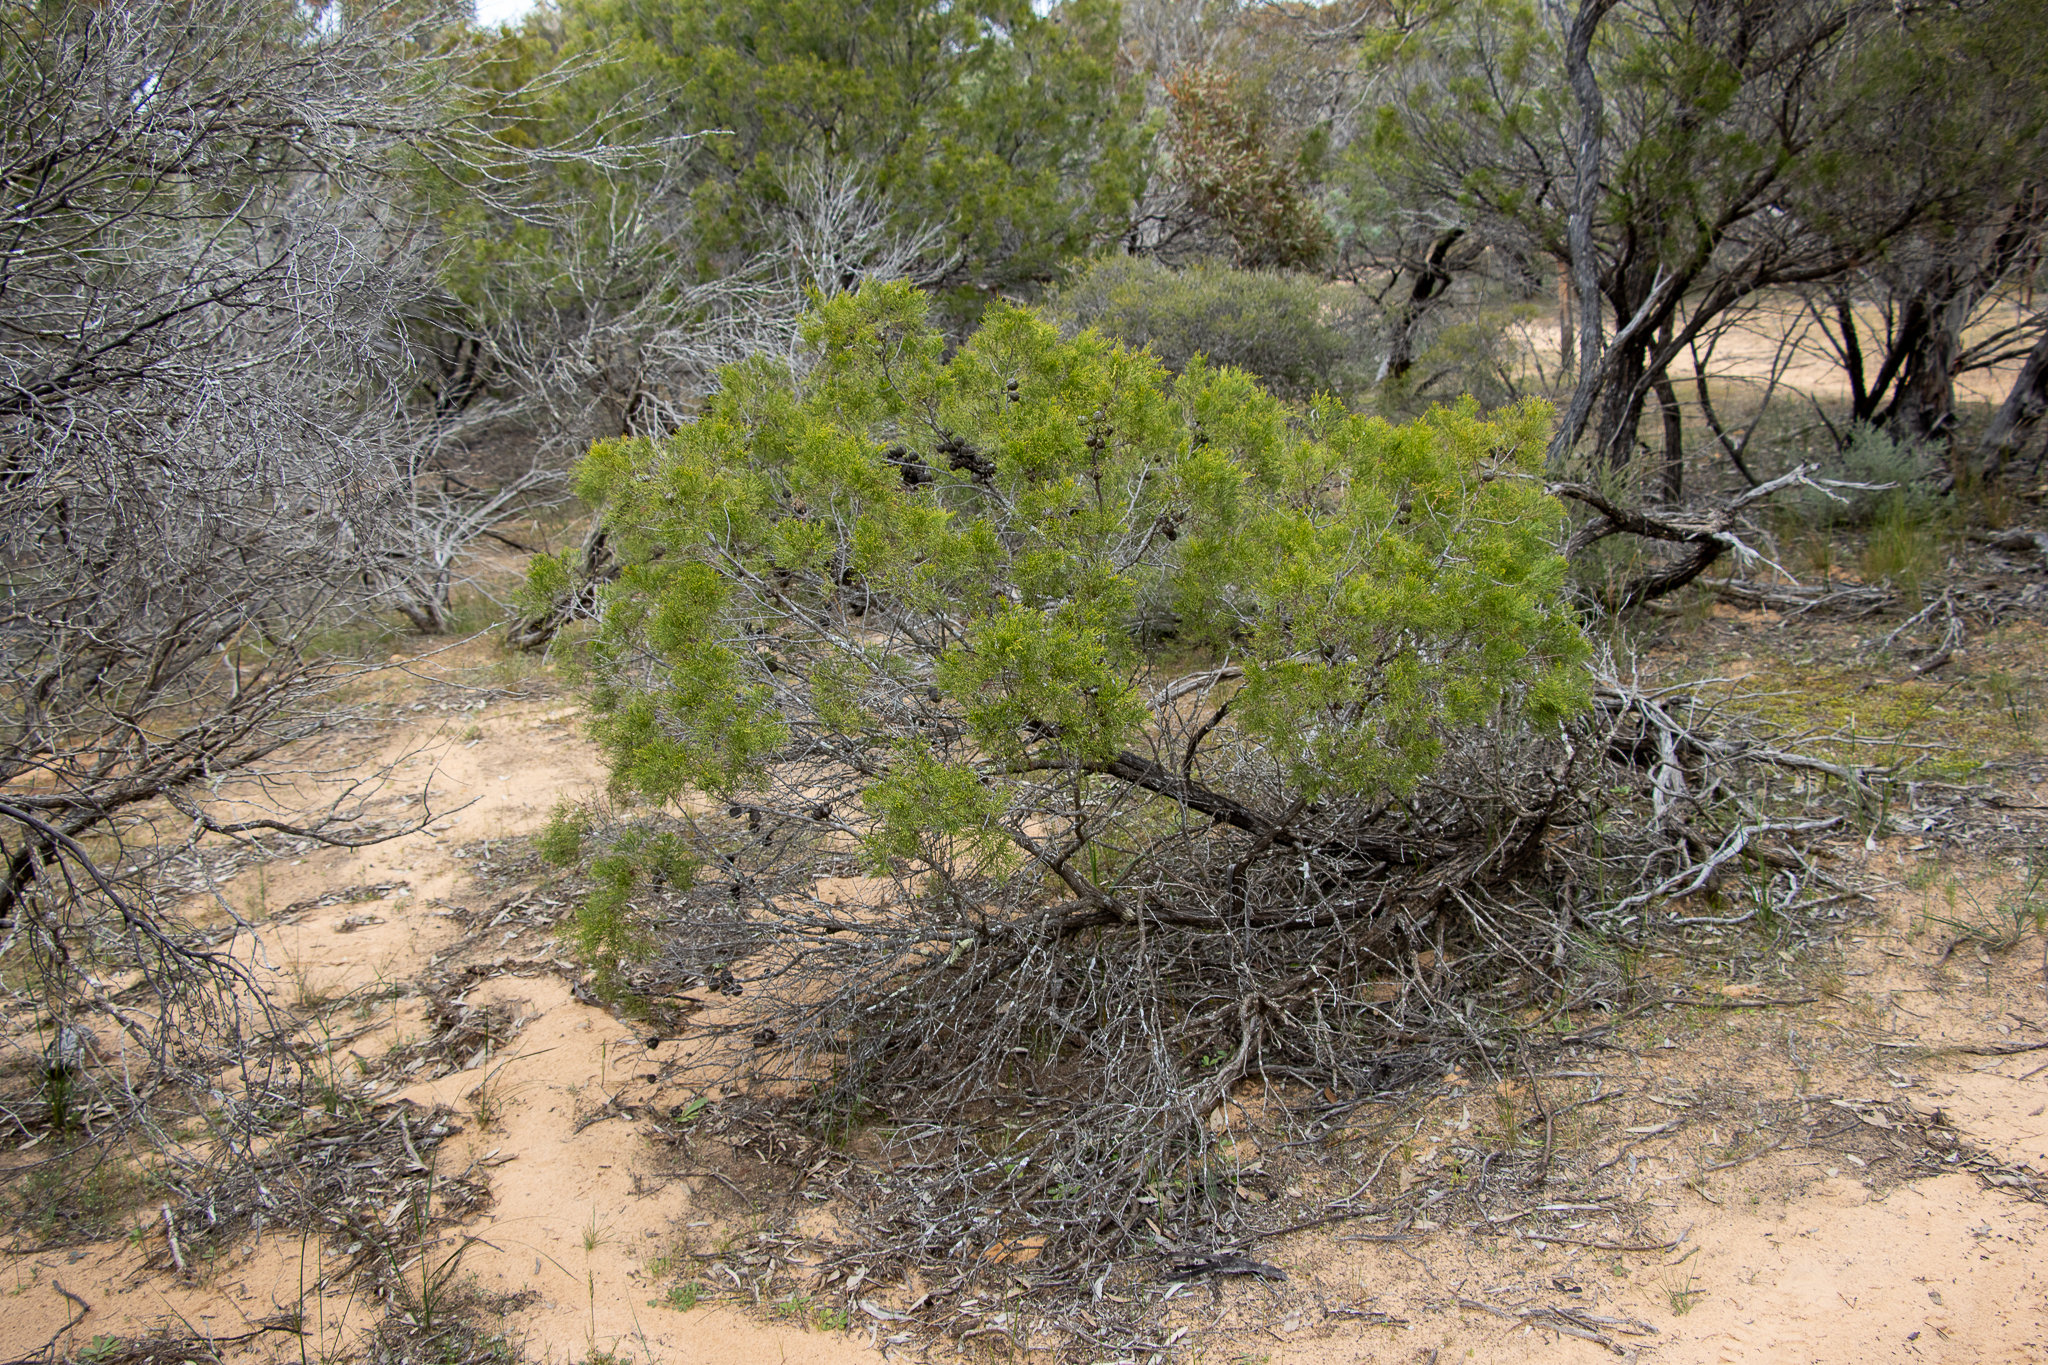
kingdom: Plantae
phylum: Tracheophyta
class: Pinopsida
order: Pinales
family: Cupressaceae
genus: Callitris
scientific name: Callitris verrucosa
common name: Scrub cypress-pine
